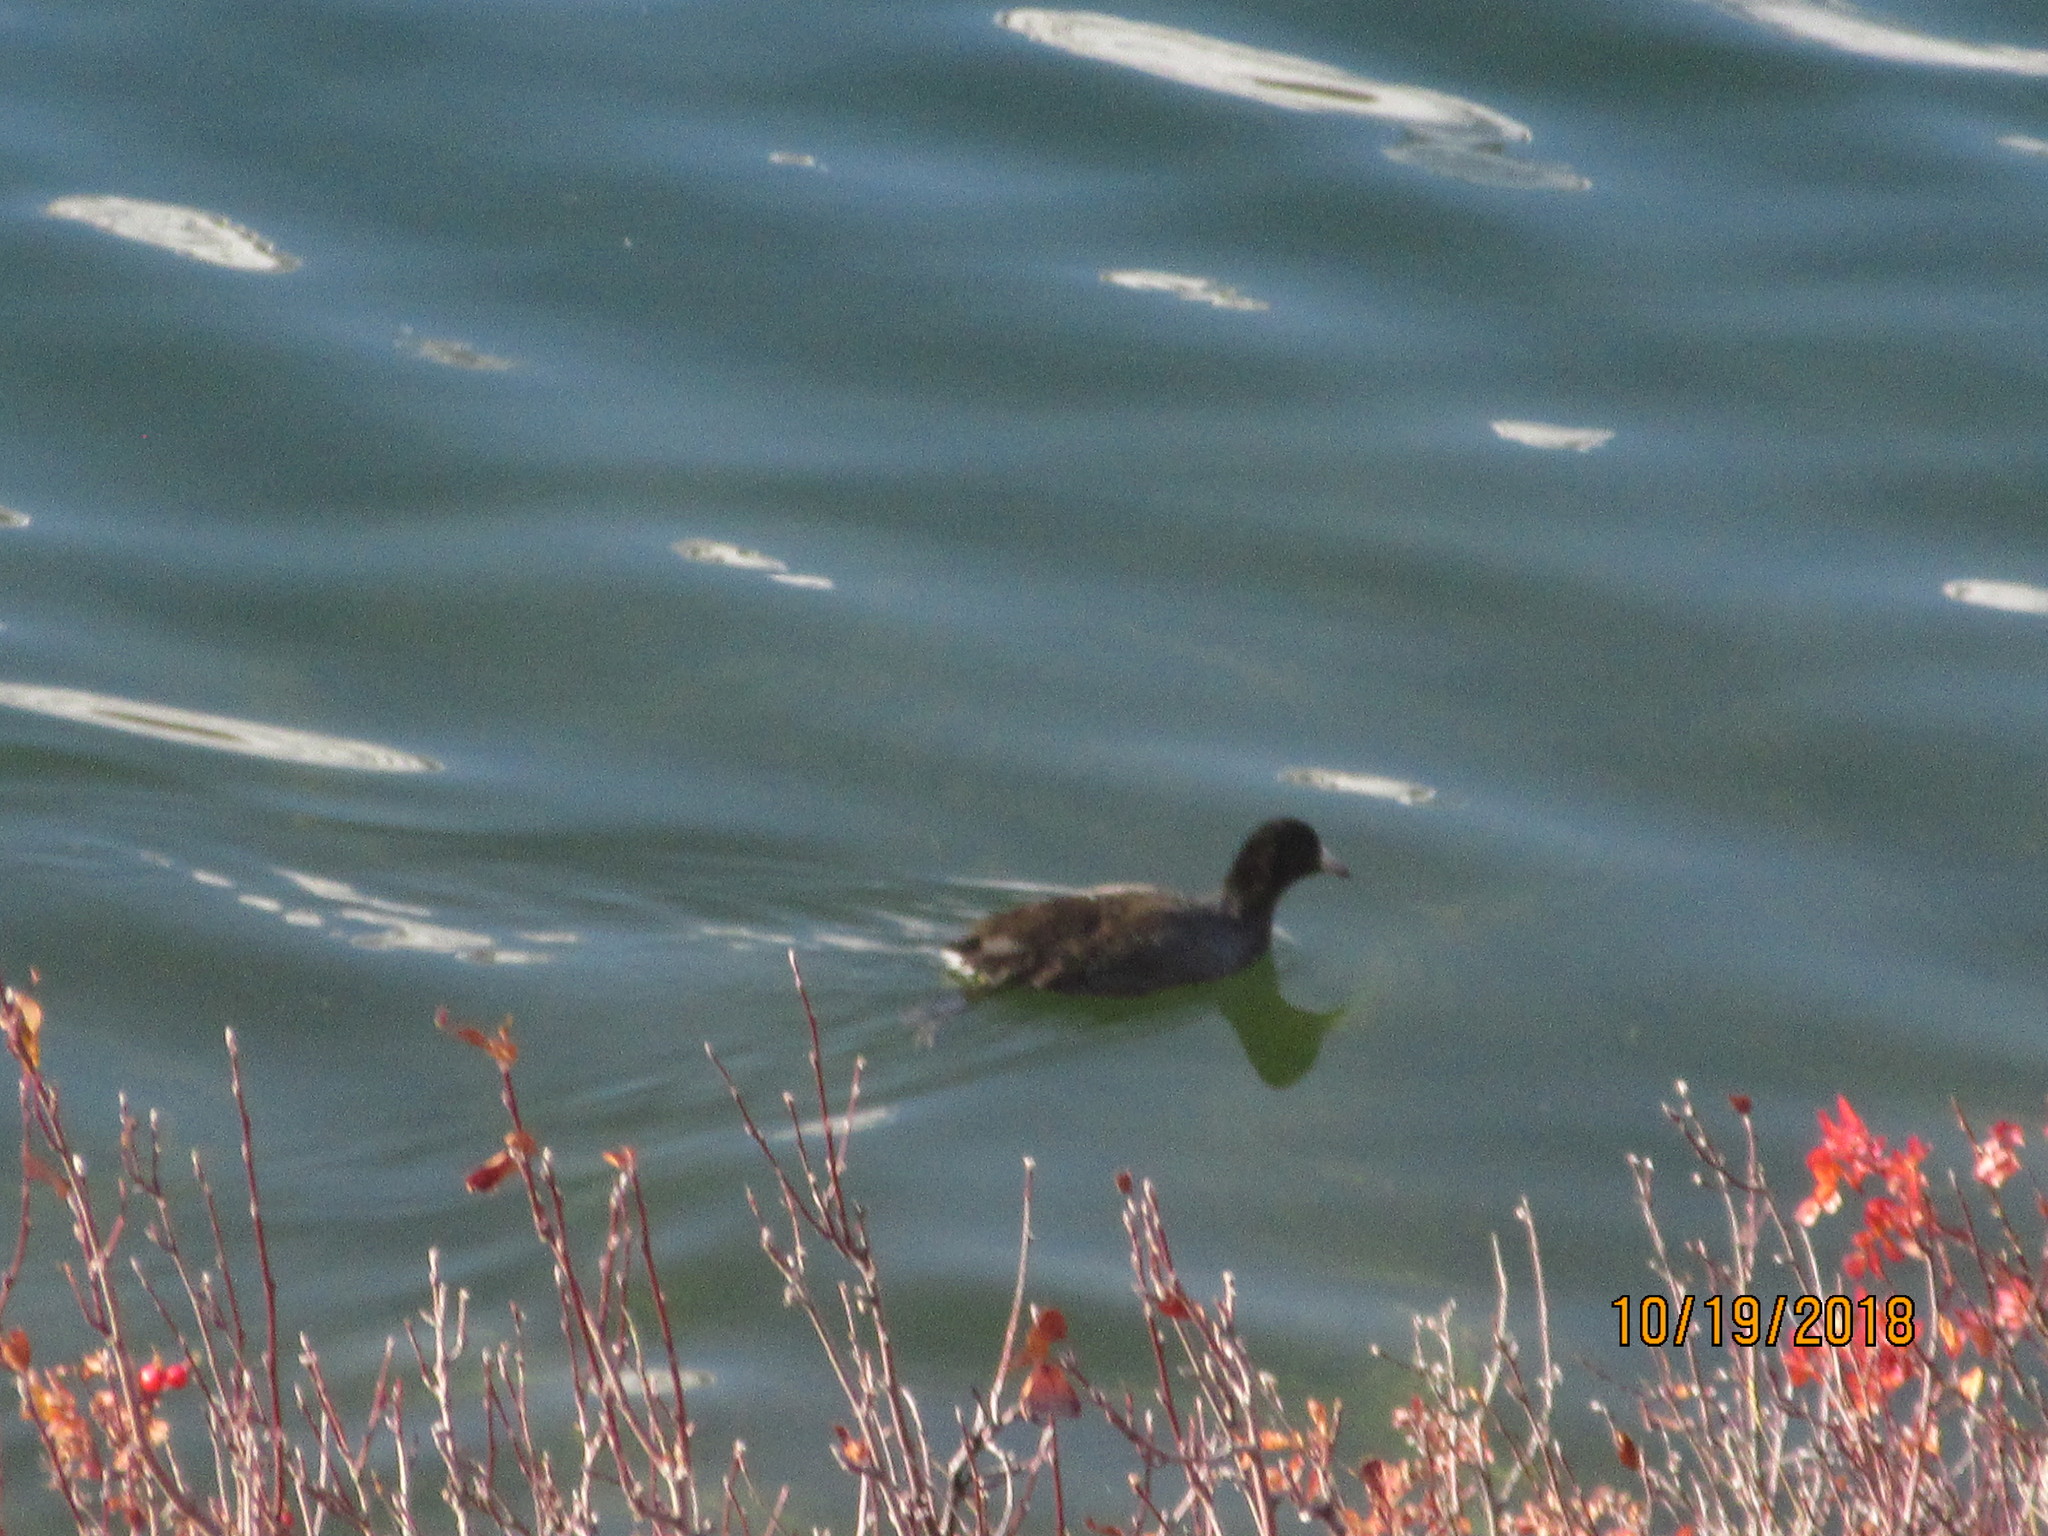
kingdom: Animalia
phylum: Chordata
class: Aves
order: Gruiformes
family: Rallidae
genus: Fulica
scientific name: Fulica americana
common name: American coot
